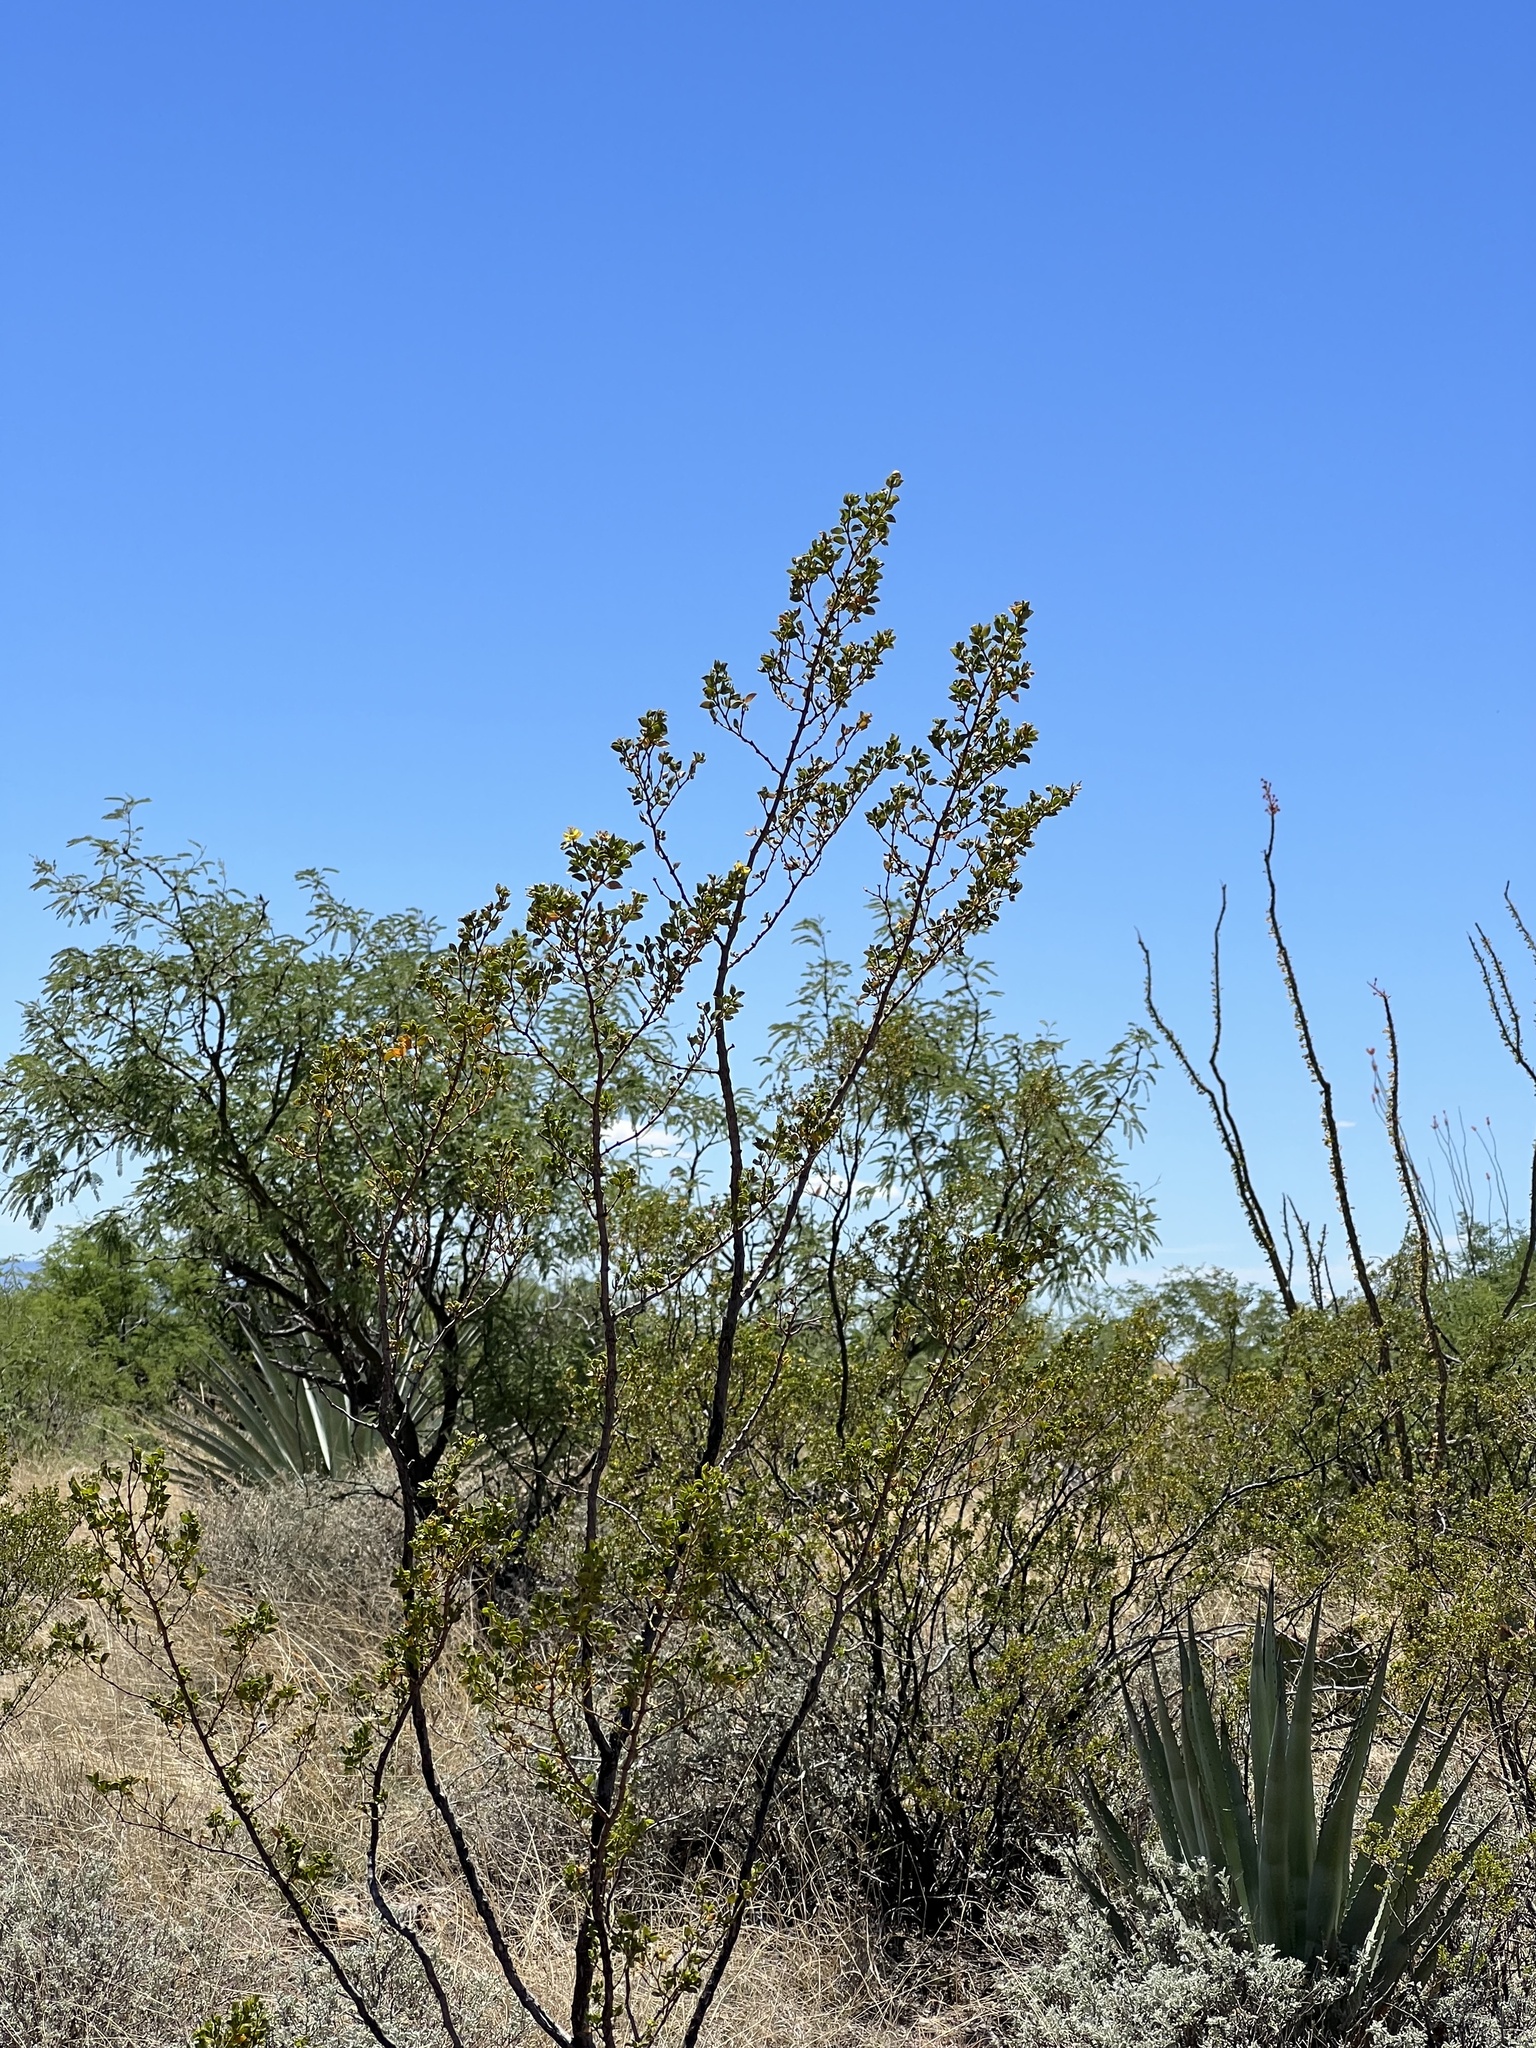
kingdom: Plantae
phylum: Tracheophyta
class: Magnoliopsida
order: Zygophyllales
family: Zygophyllaceae
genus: Larrea
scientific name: Larrea tridentata
